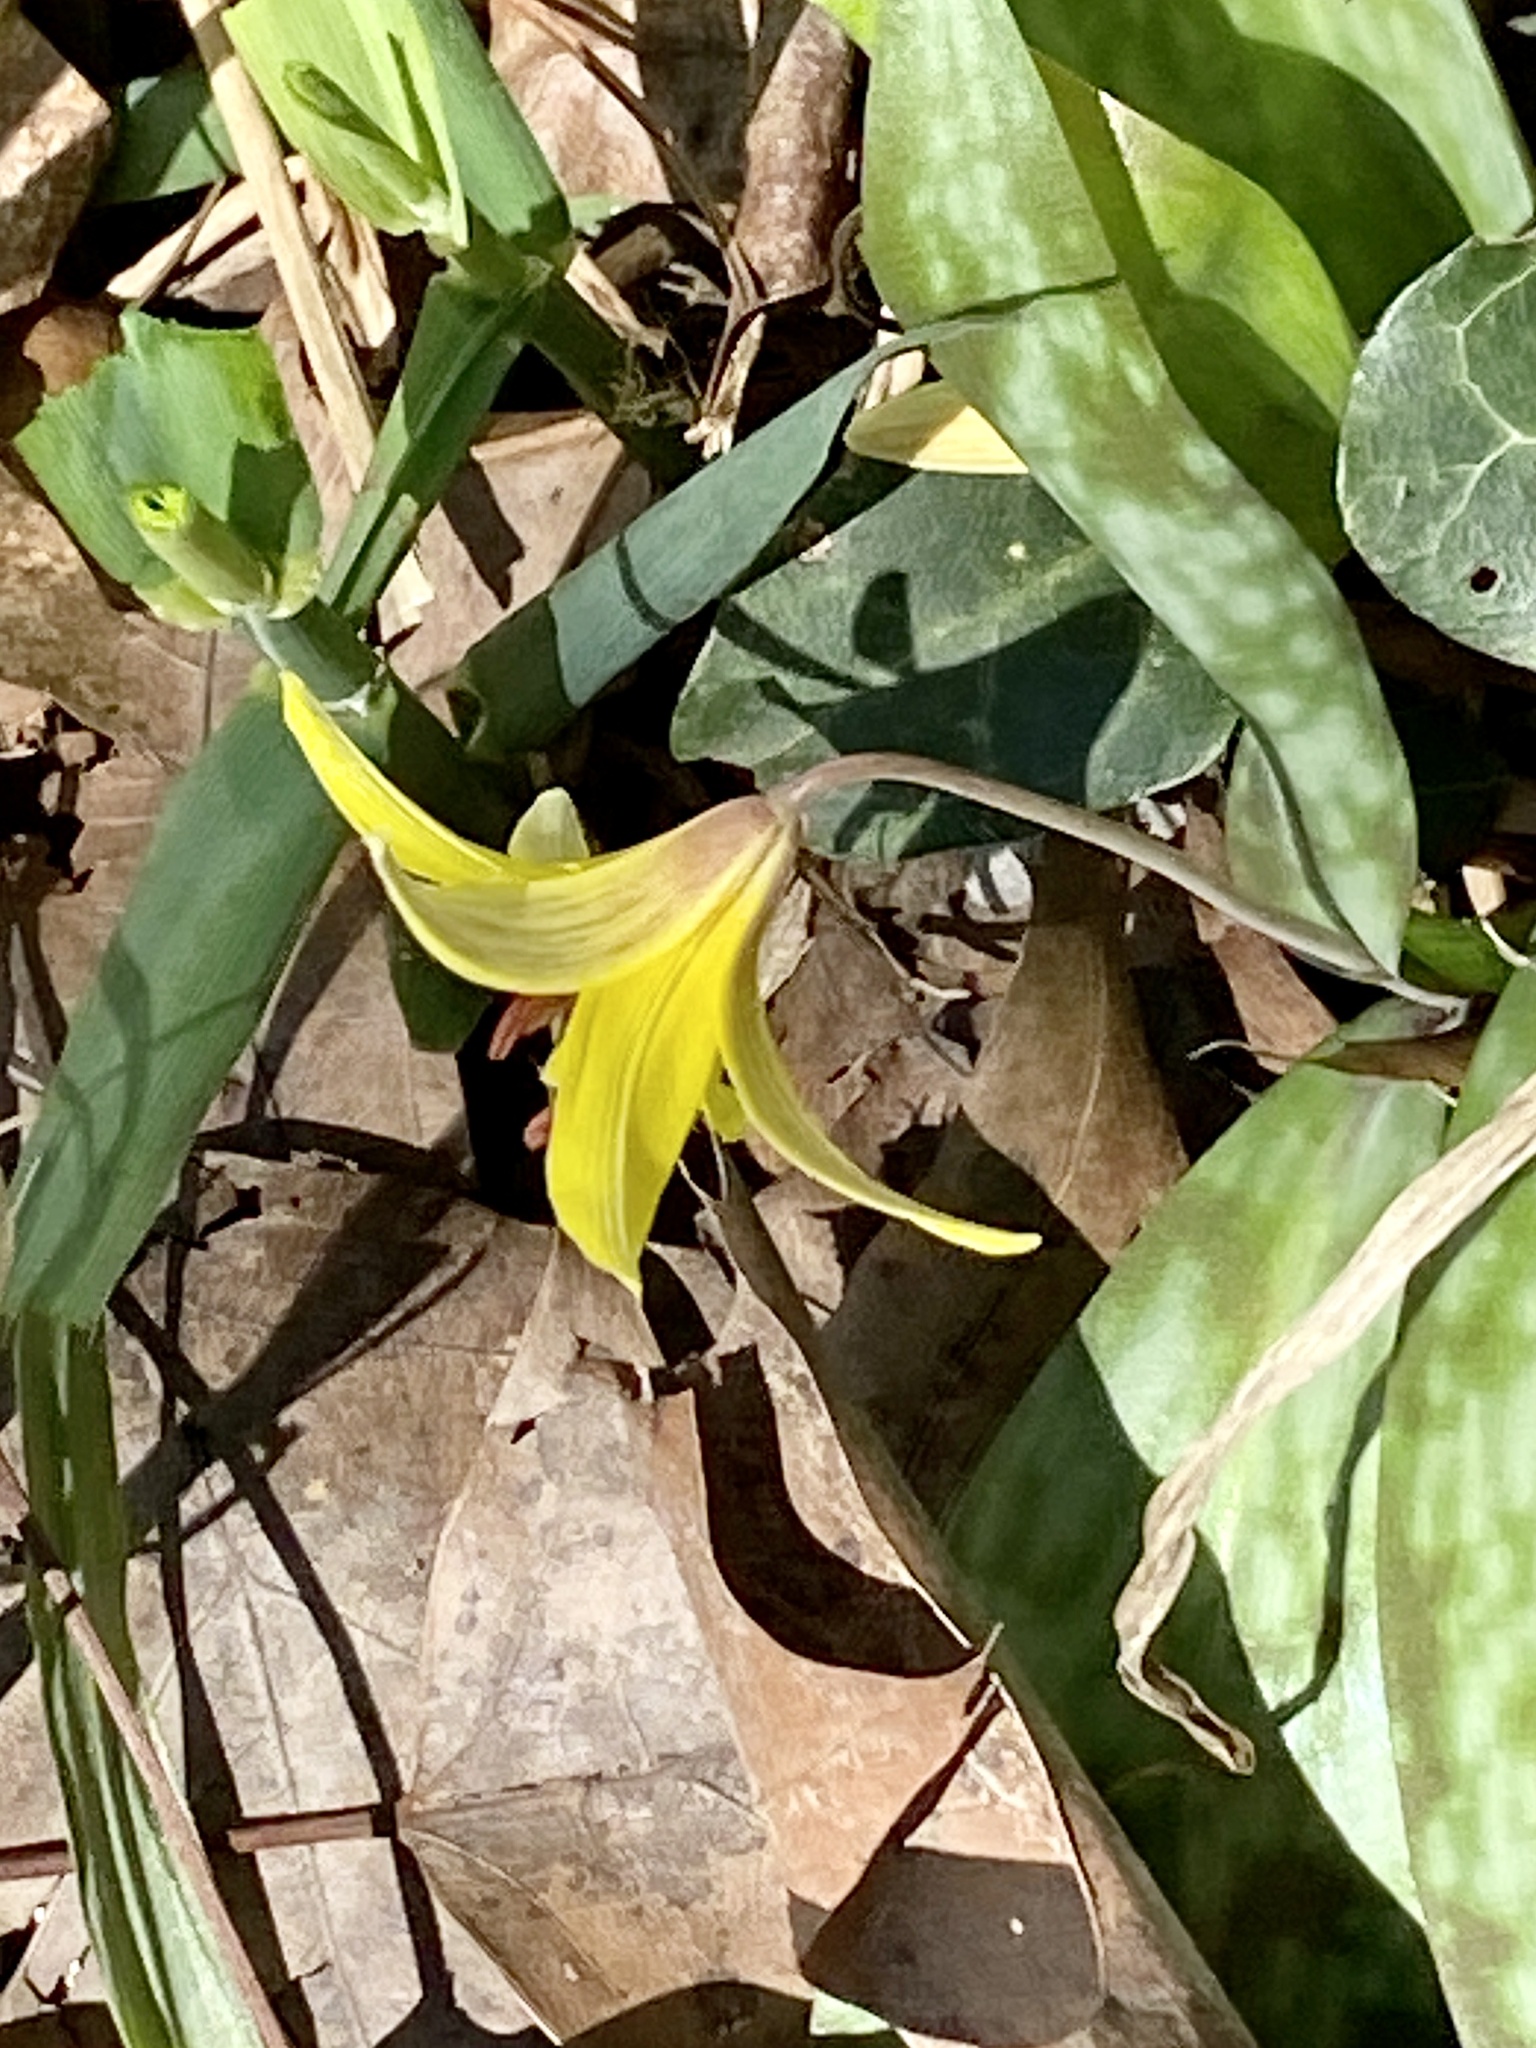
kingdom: Plantae
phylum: Tracheophyta
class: Liliopsida
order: Liliales
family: Liliaceae
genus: Erythronium
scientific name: Erythronium americanum
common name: Yellow adder's-tongue
